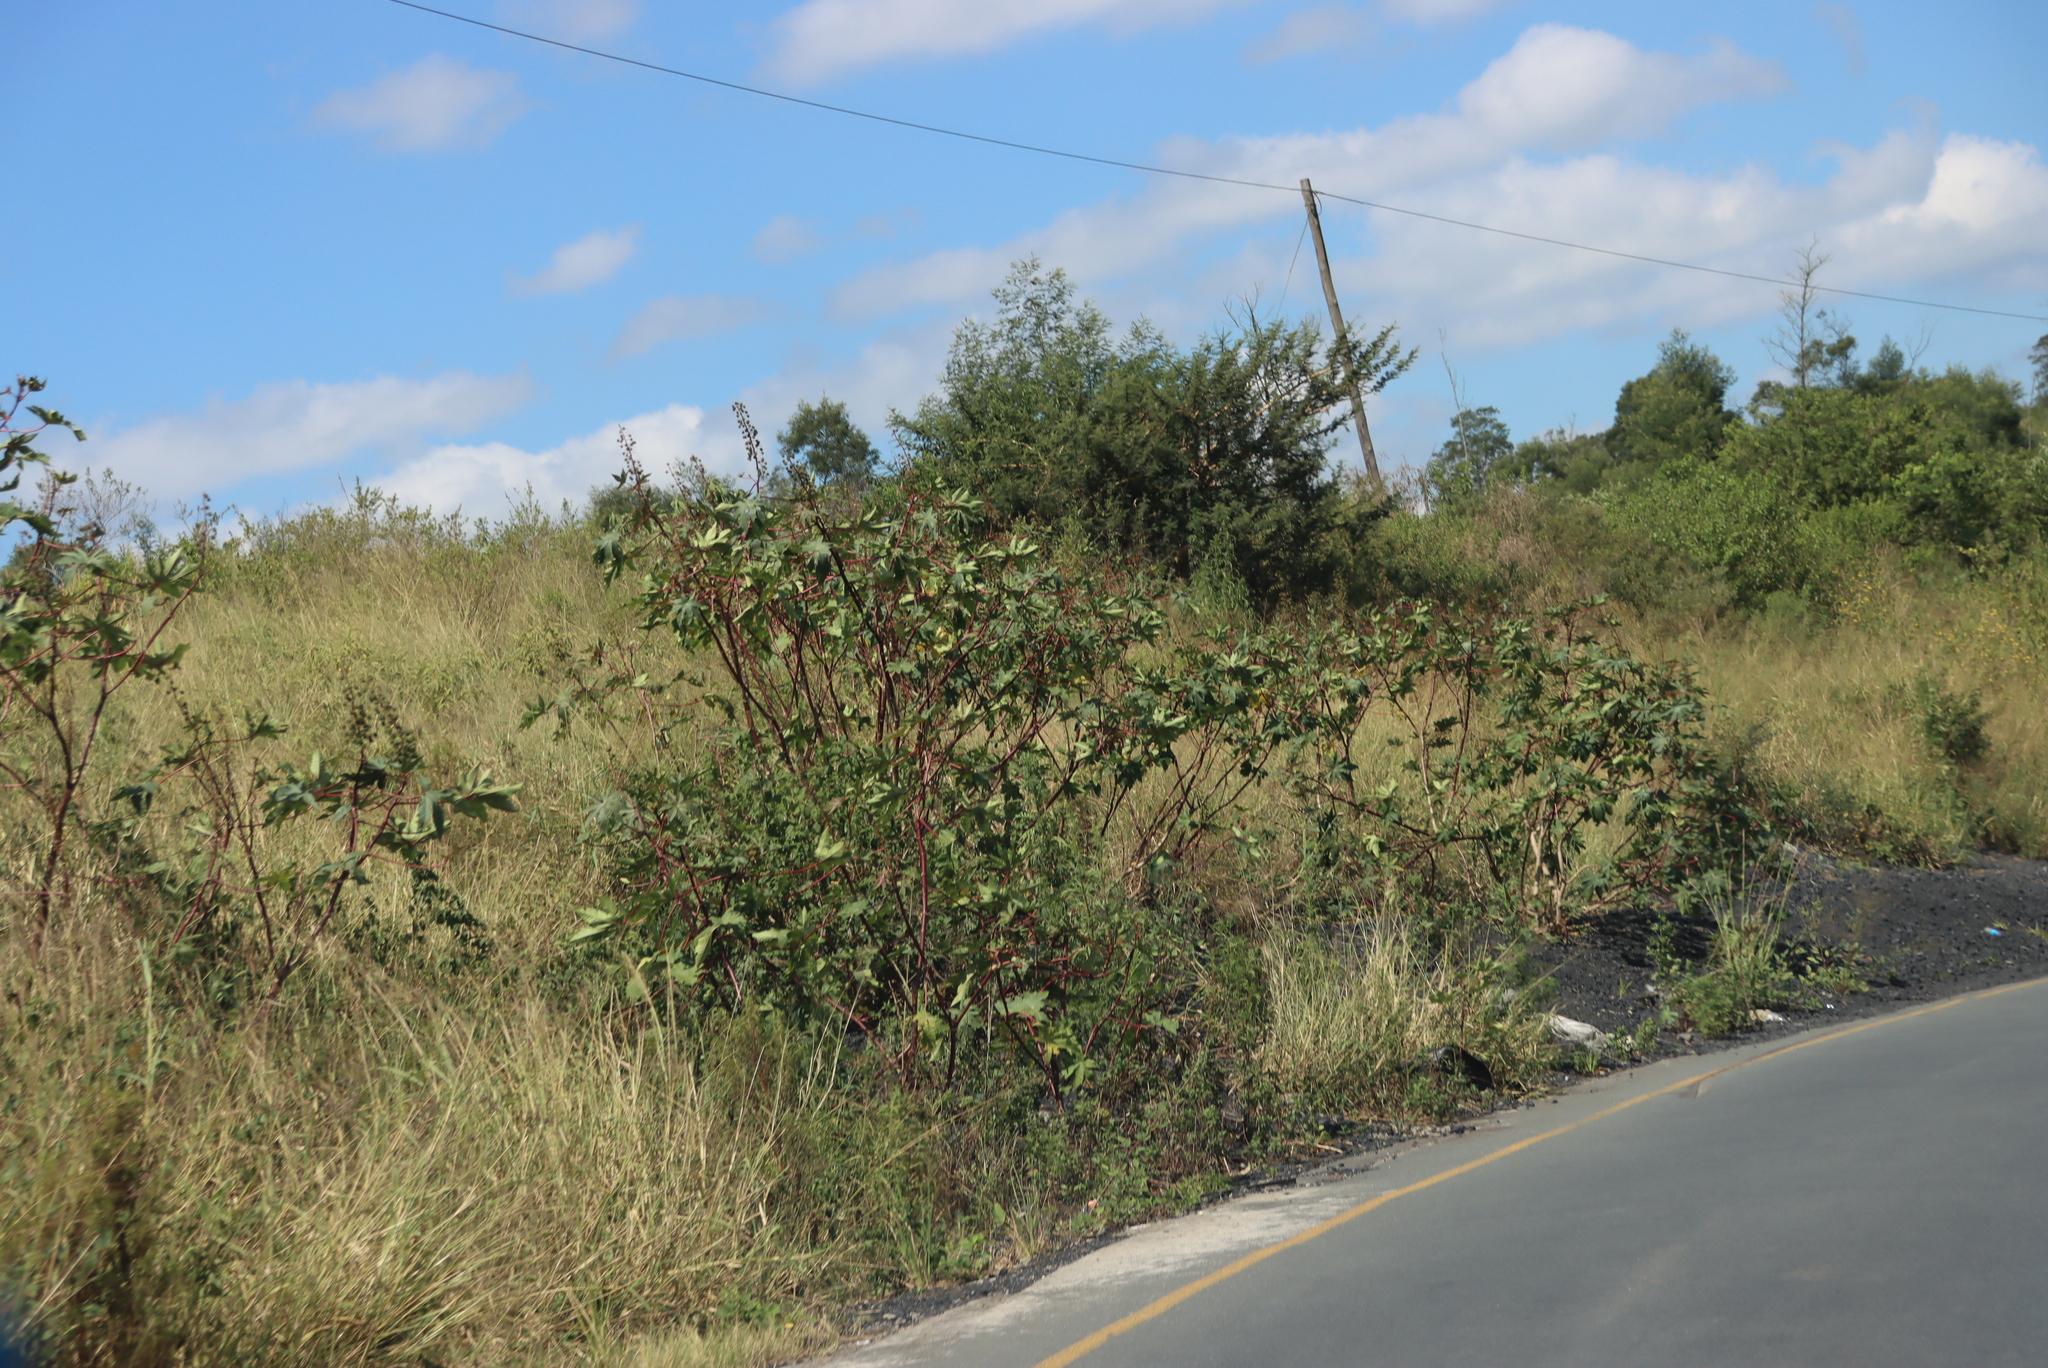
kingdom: Plantae
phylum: Tracheophyta
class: Magnoliopsida
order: Malpighiales
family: Euphorbiaceae
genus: Ricinus
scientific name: Ricinus communis
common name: Castor-oil-plant
